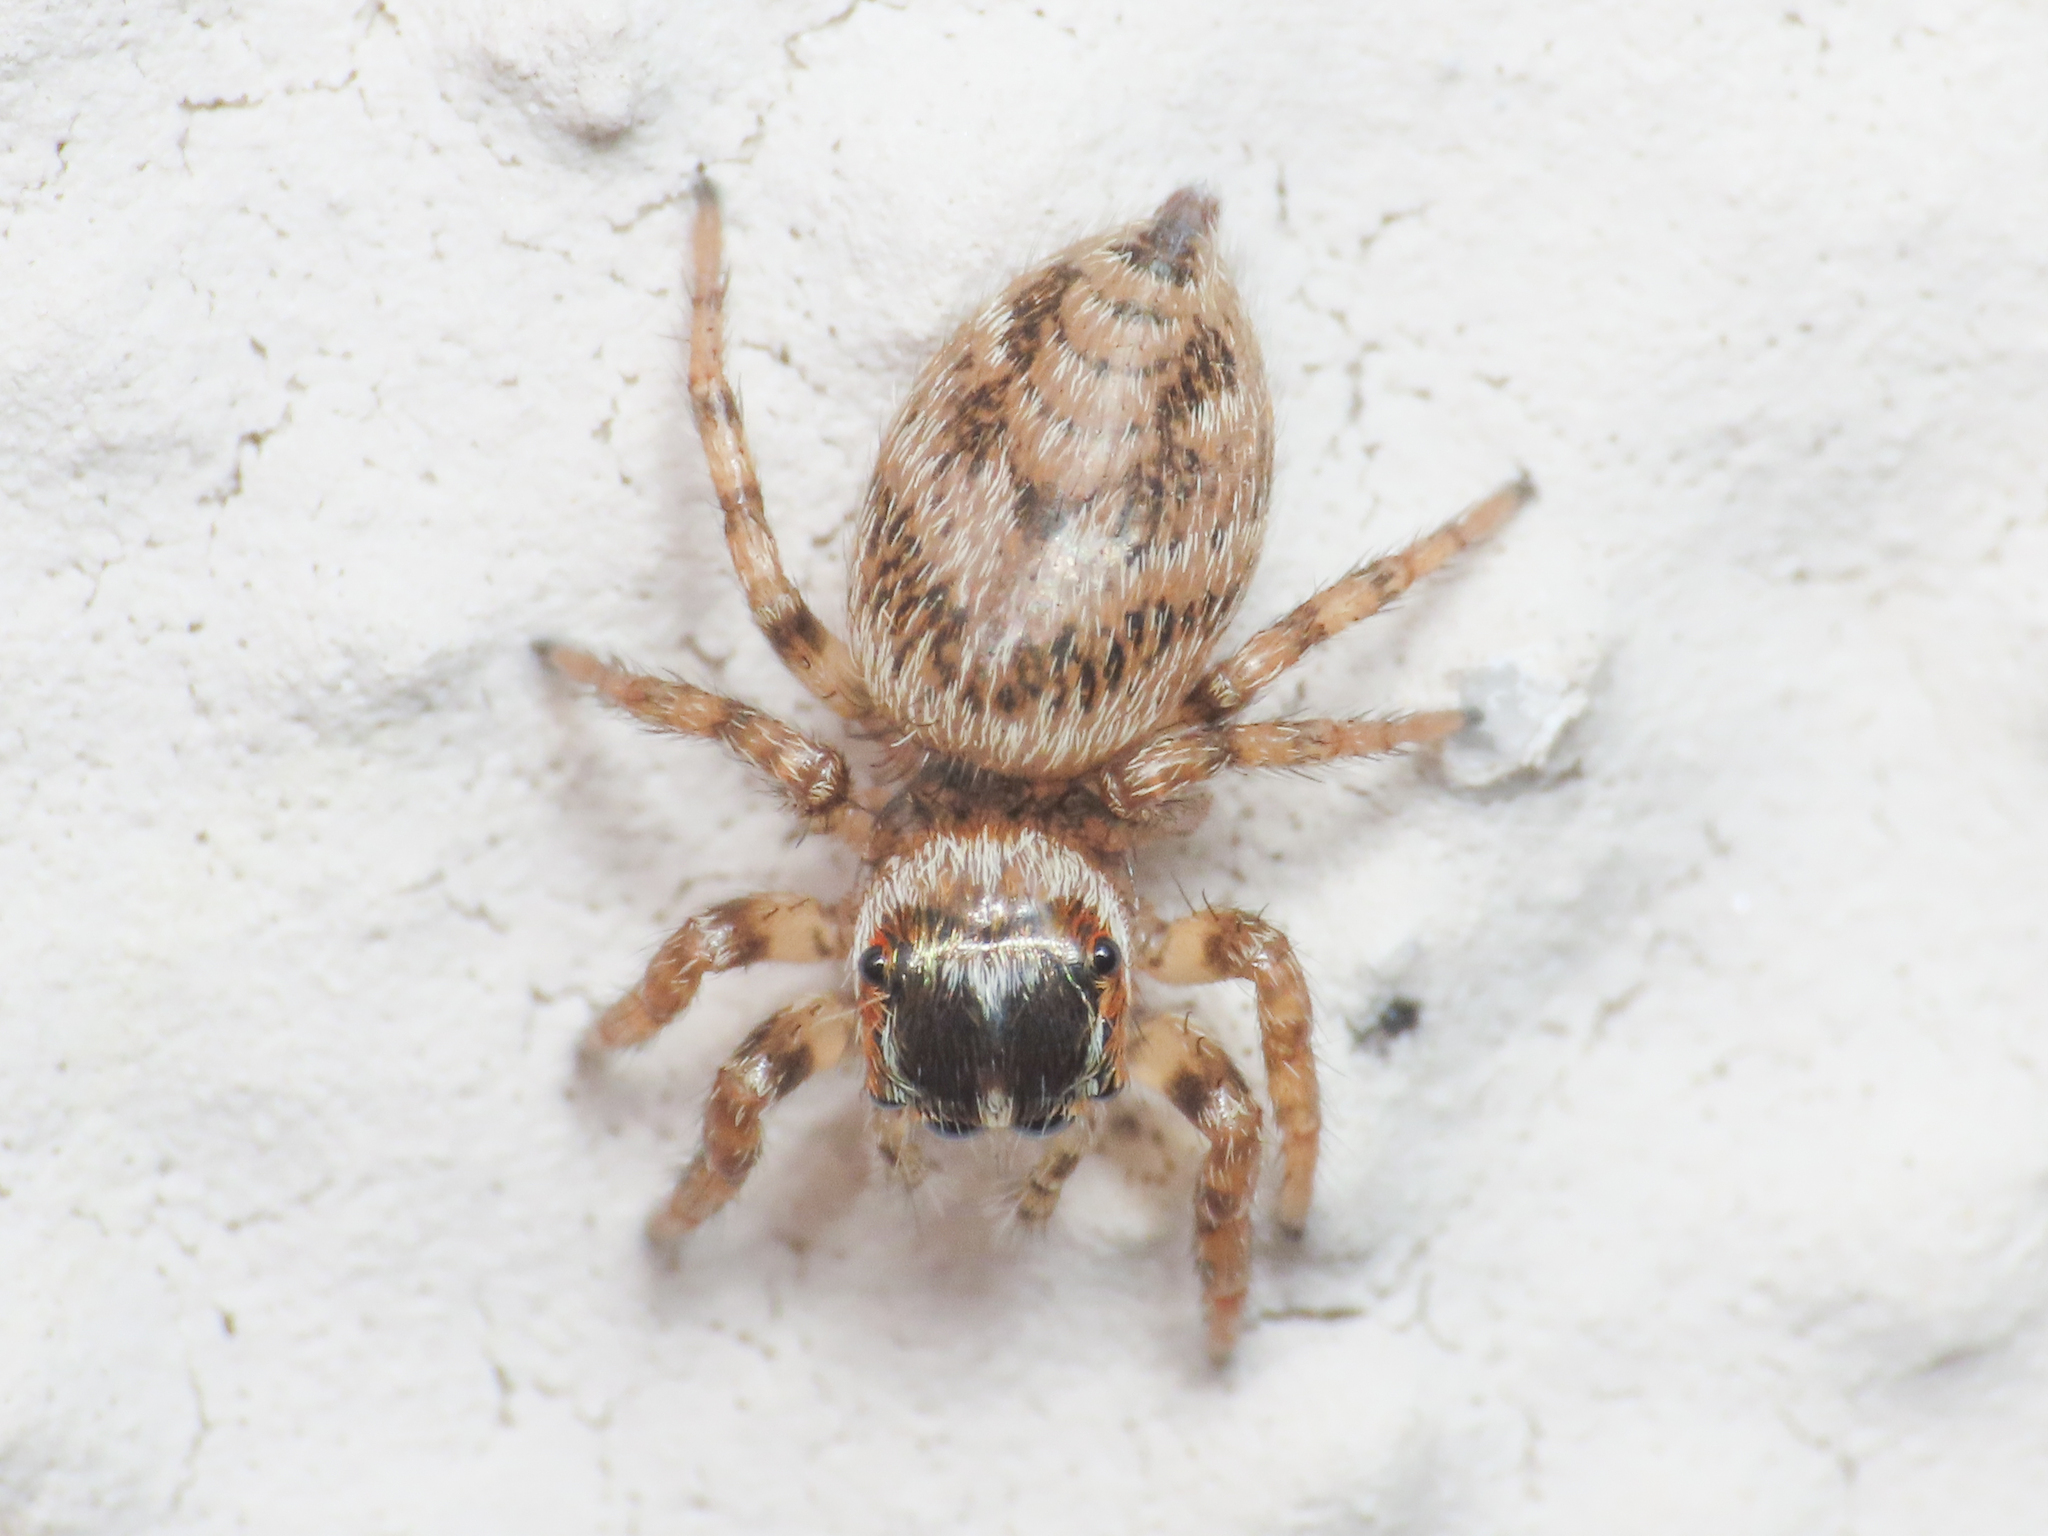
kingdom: Animalia
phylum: Arthropoda
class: Arachnida
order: Araneae
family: Salticidae
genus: Evarcha
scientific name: Evarcha jucunda
